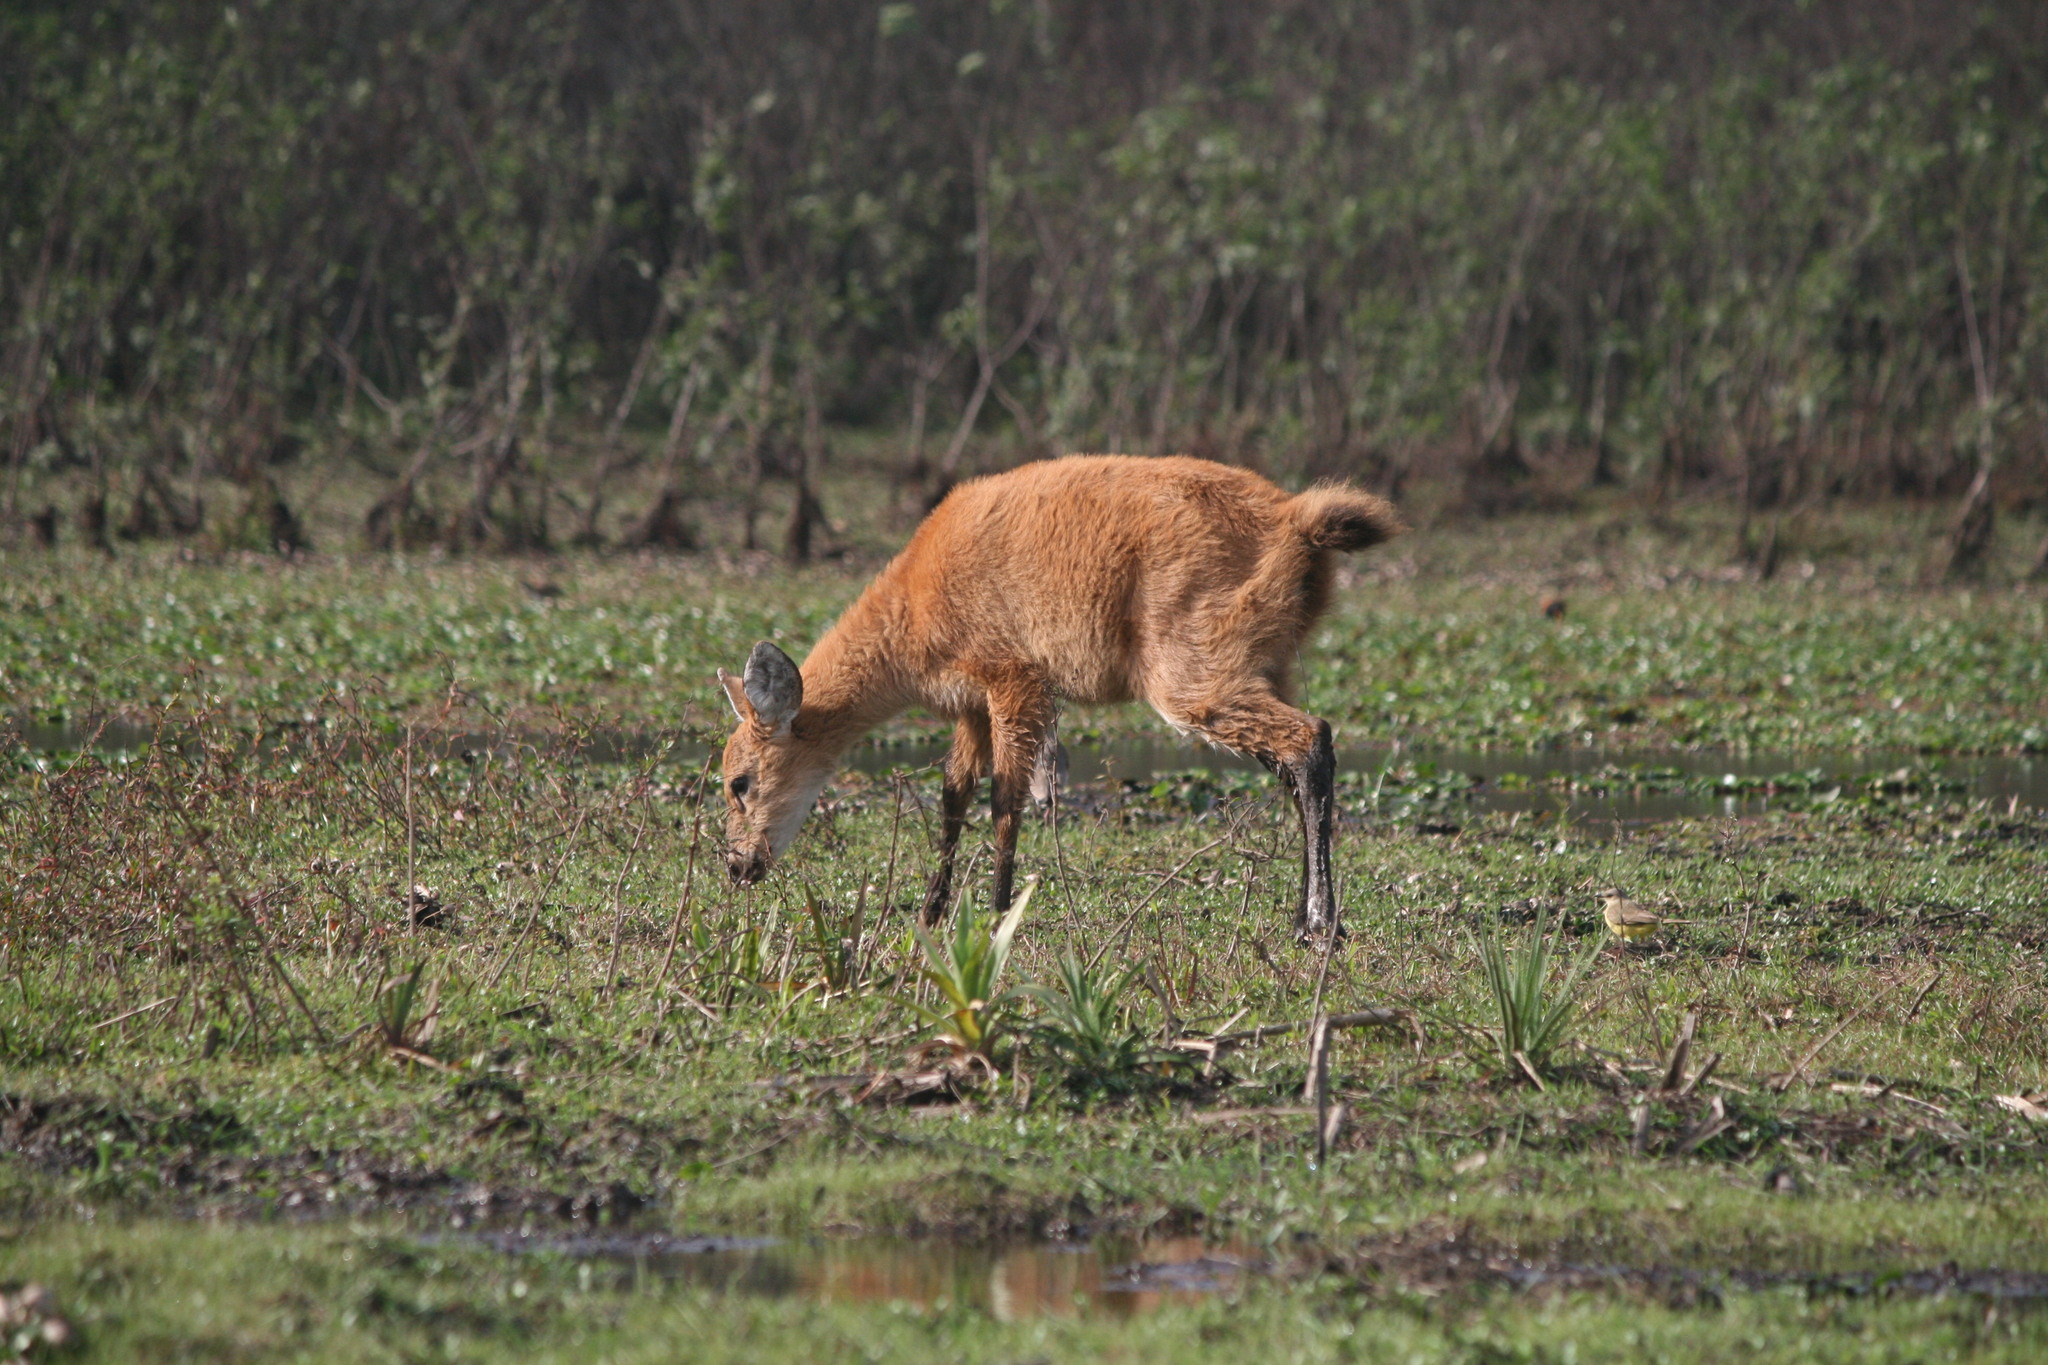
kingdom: Animalia
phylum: Chordata
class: Mammalia
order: Artiodactyla
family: Cervidae
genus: Blastocerus
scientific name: Blastocerus dichotomus
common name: Marsh deer
